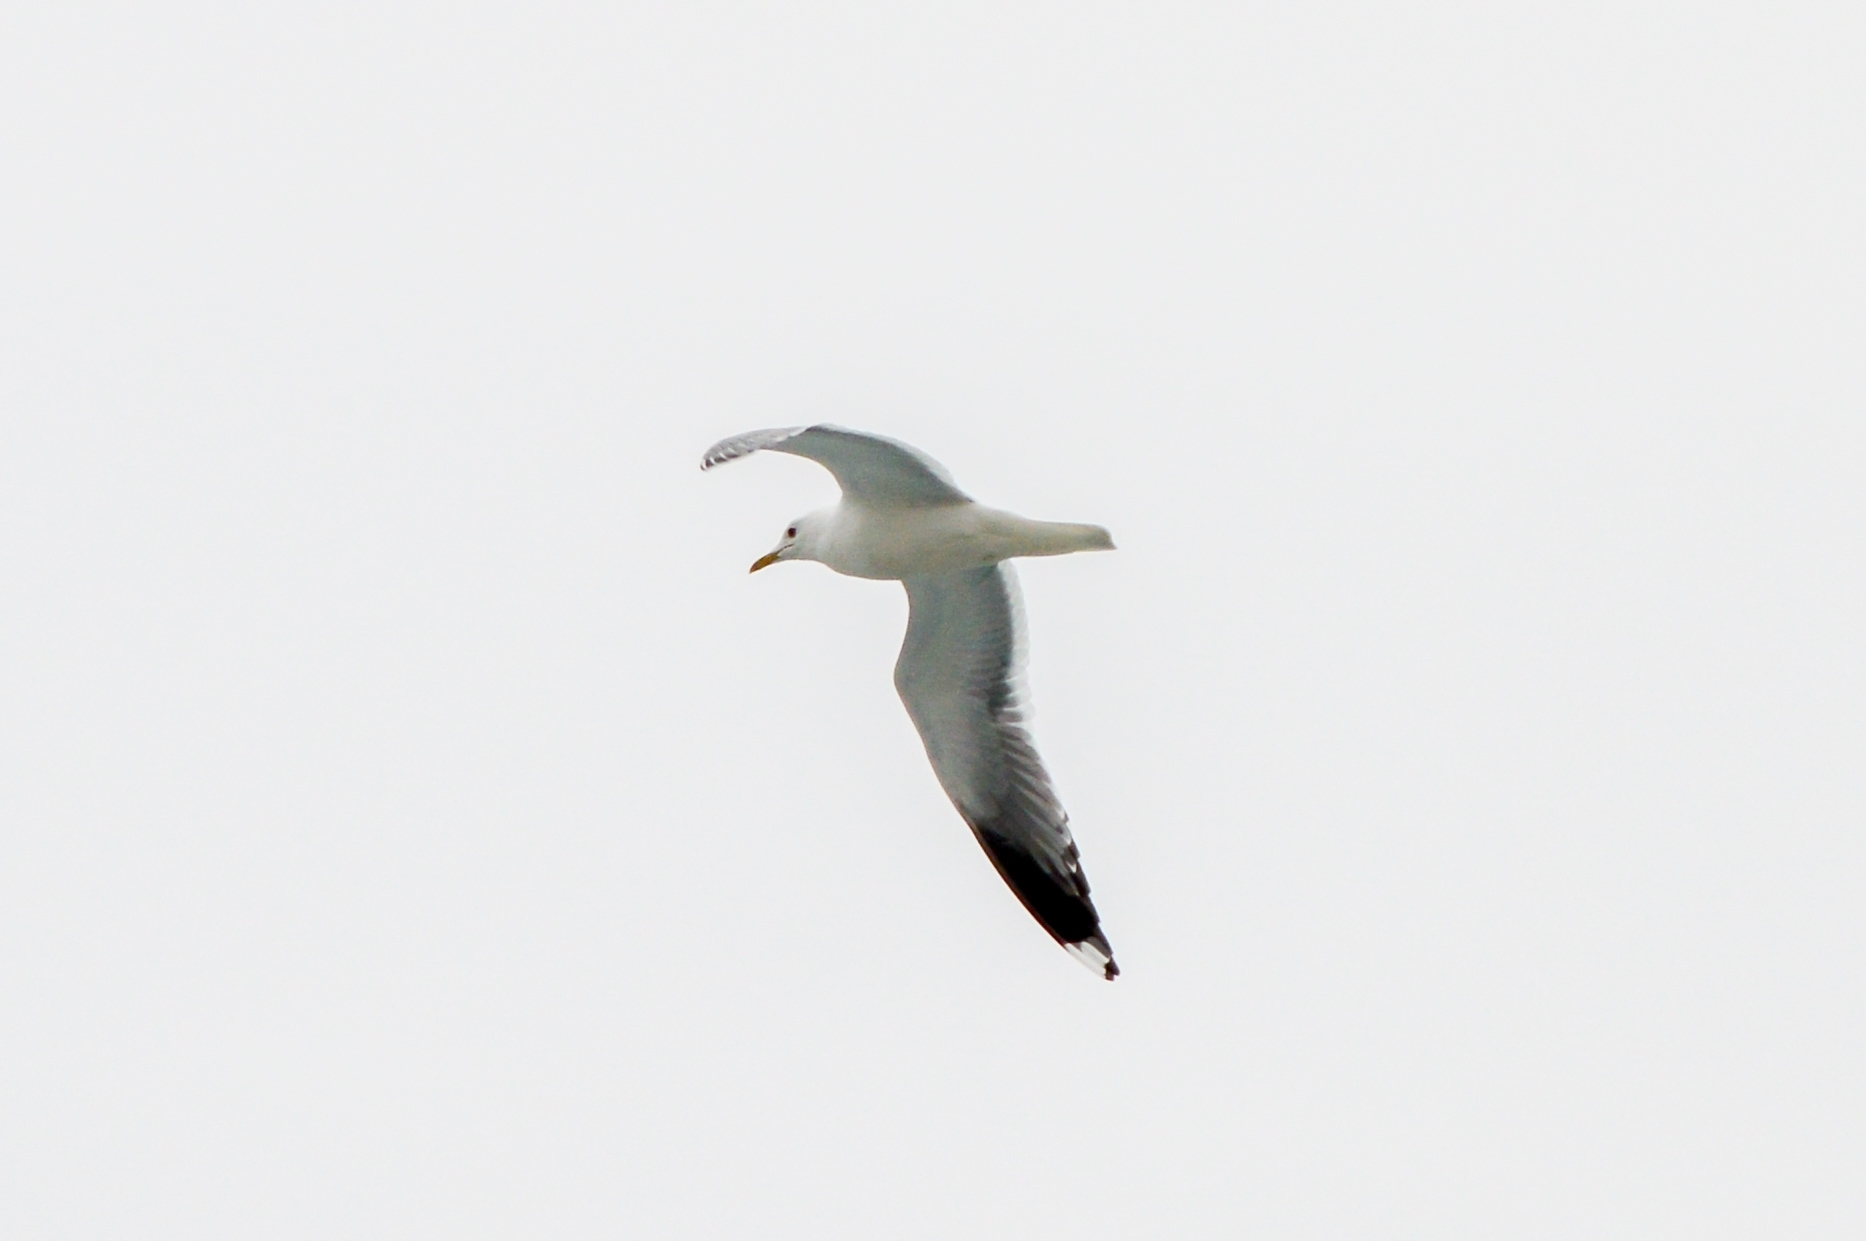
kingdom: Animalia
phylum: Chordata
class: Aves
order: Charadriiformes
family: Laridae
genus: Larus
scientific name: Larus canus
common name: Mew gull
